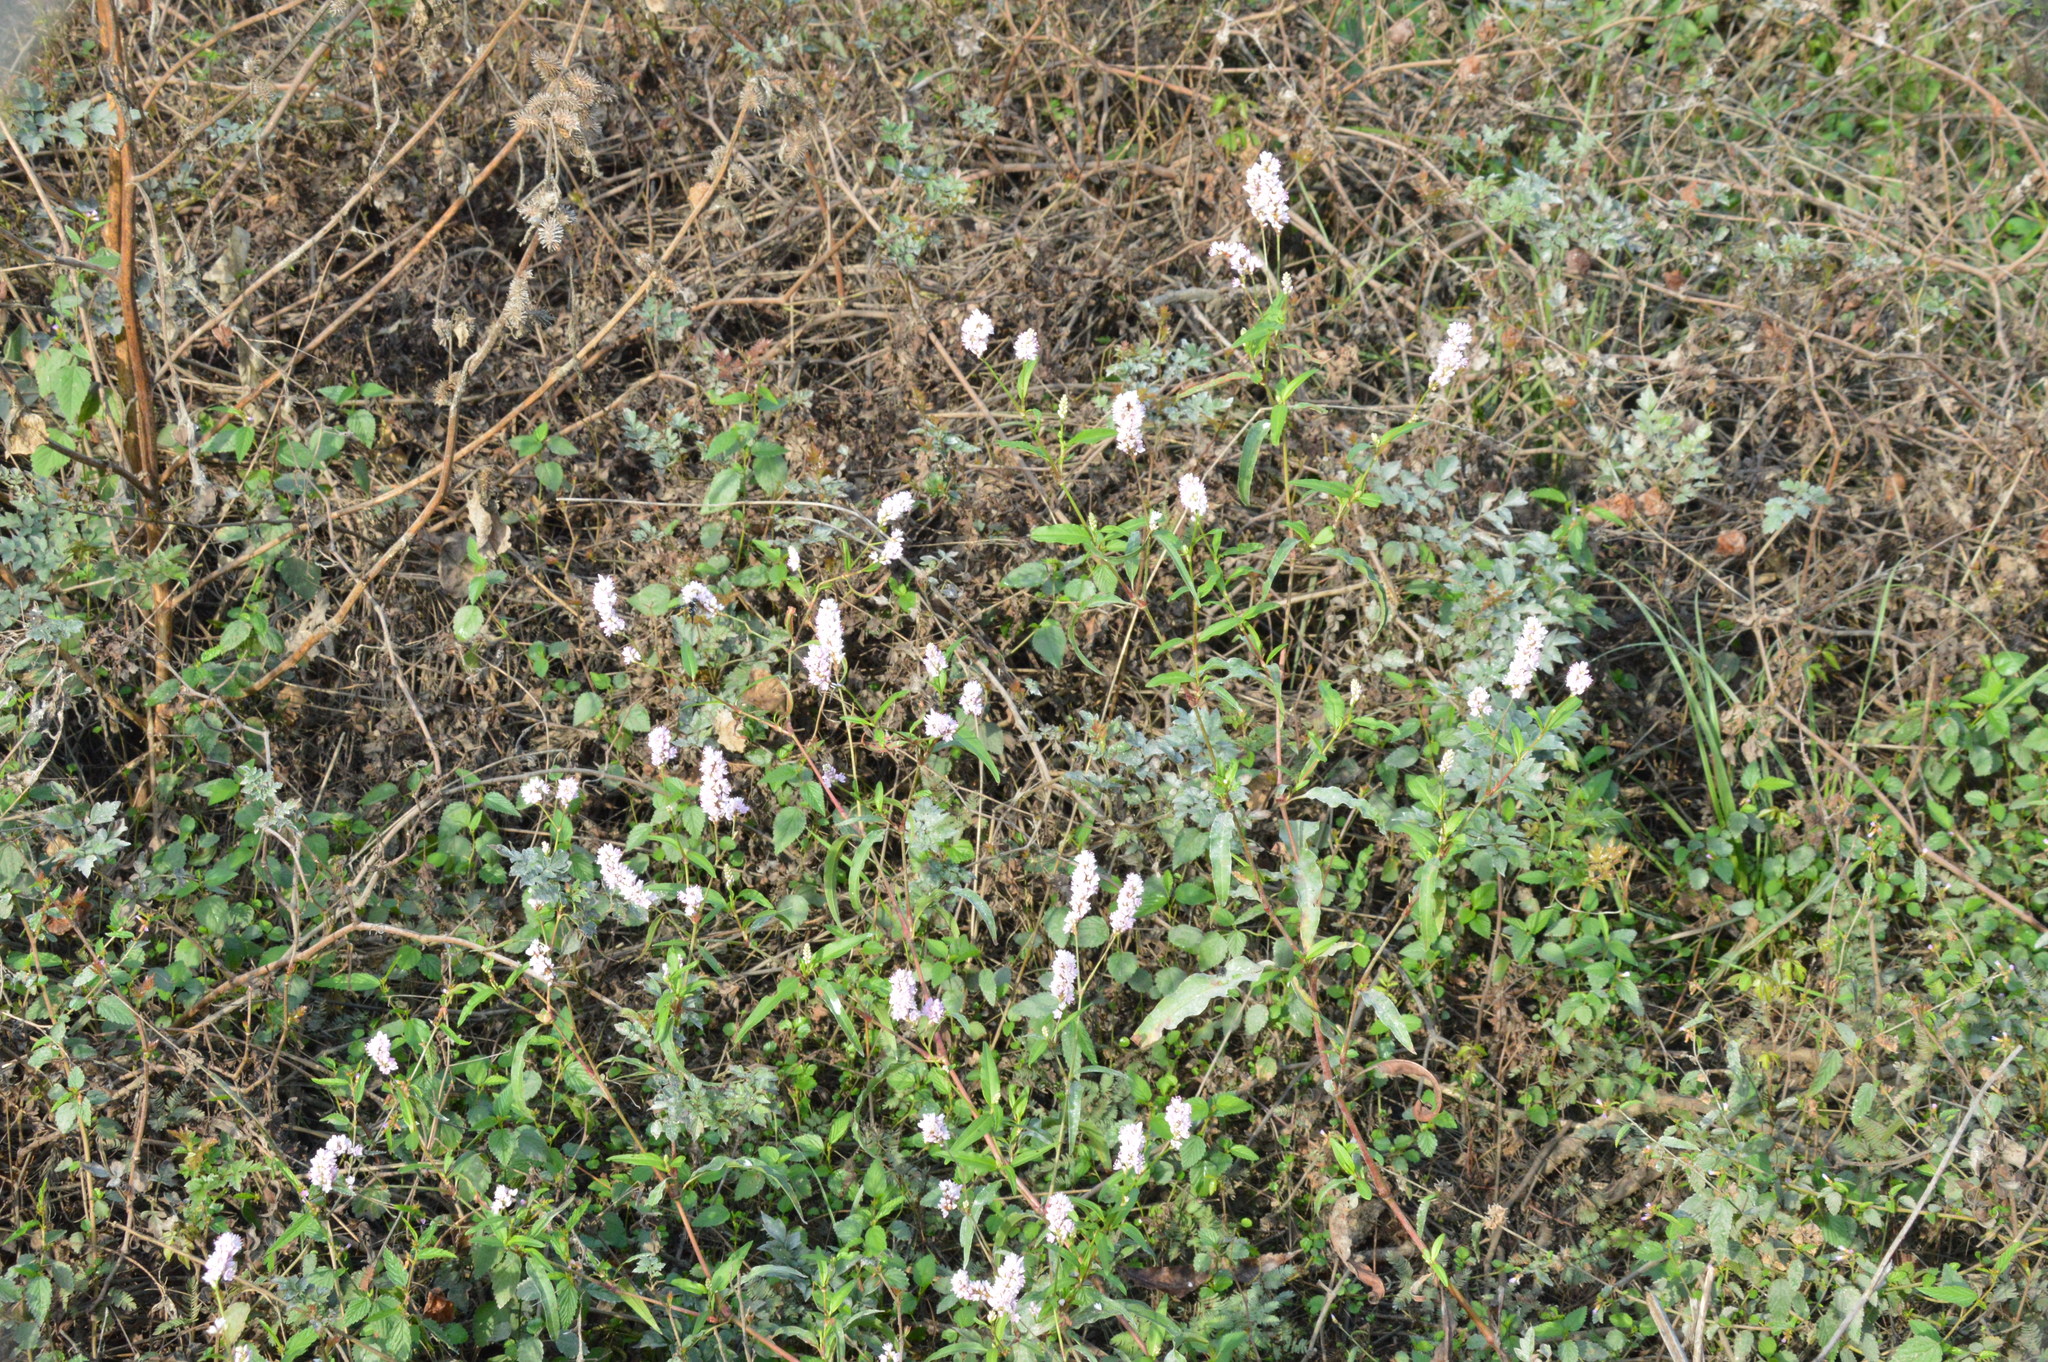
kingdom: Plantae
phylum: Tracheophyta
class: Magnoliopsida
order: Caryophyllales
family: Polygonaceae
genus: Persicaria
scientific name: Persicaria bicornis
